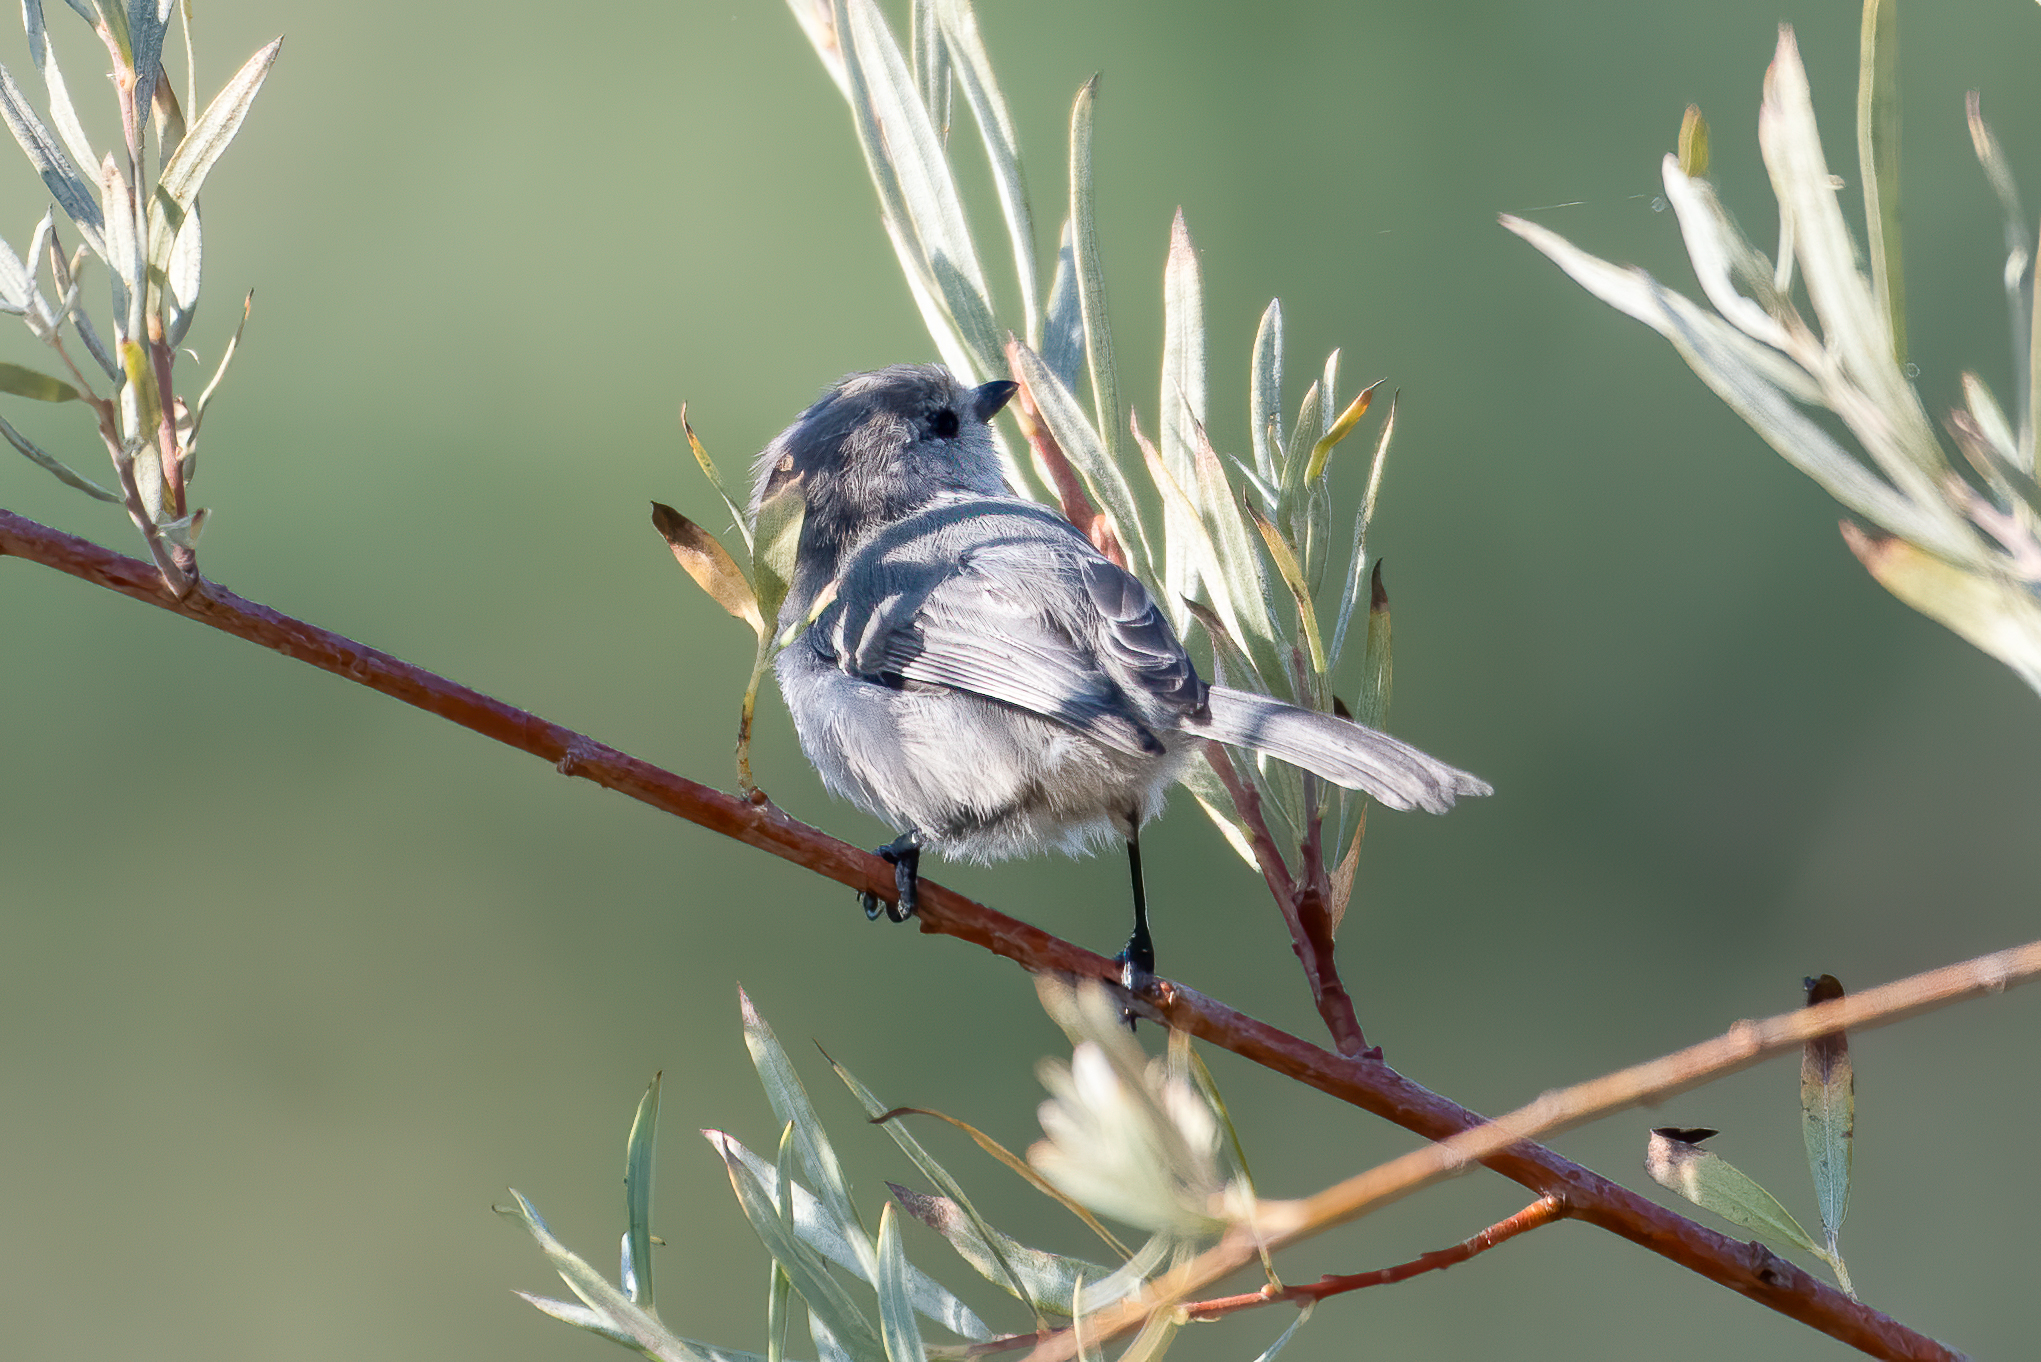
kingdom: Animalia
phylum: Chordata
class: Aves
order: Passeriformes
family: Aegithalidae
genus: Psaltriparus
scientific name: Psaltriparus minimus
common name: American bushtit
